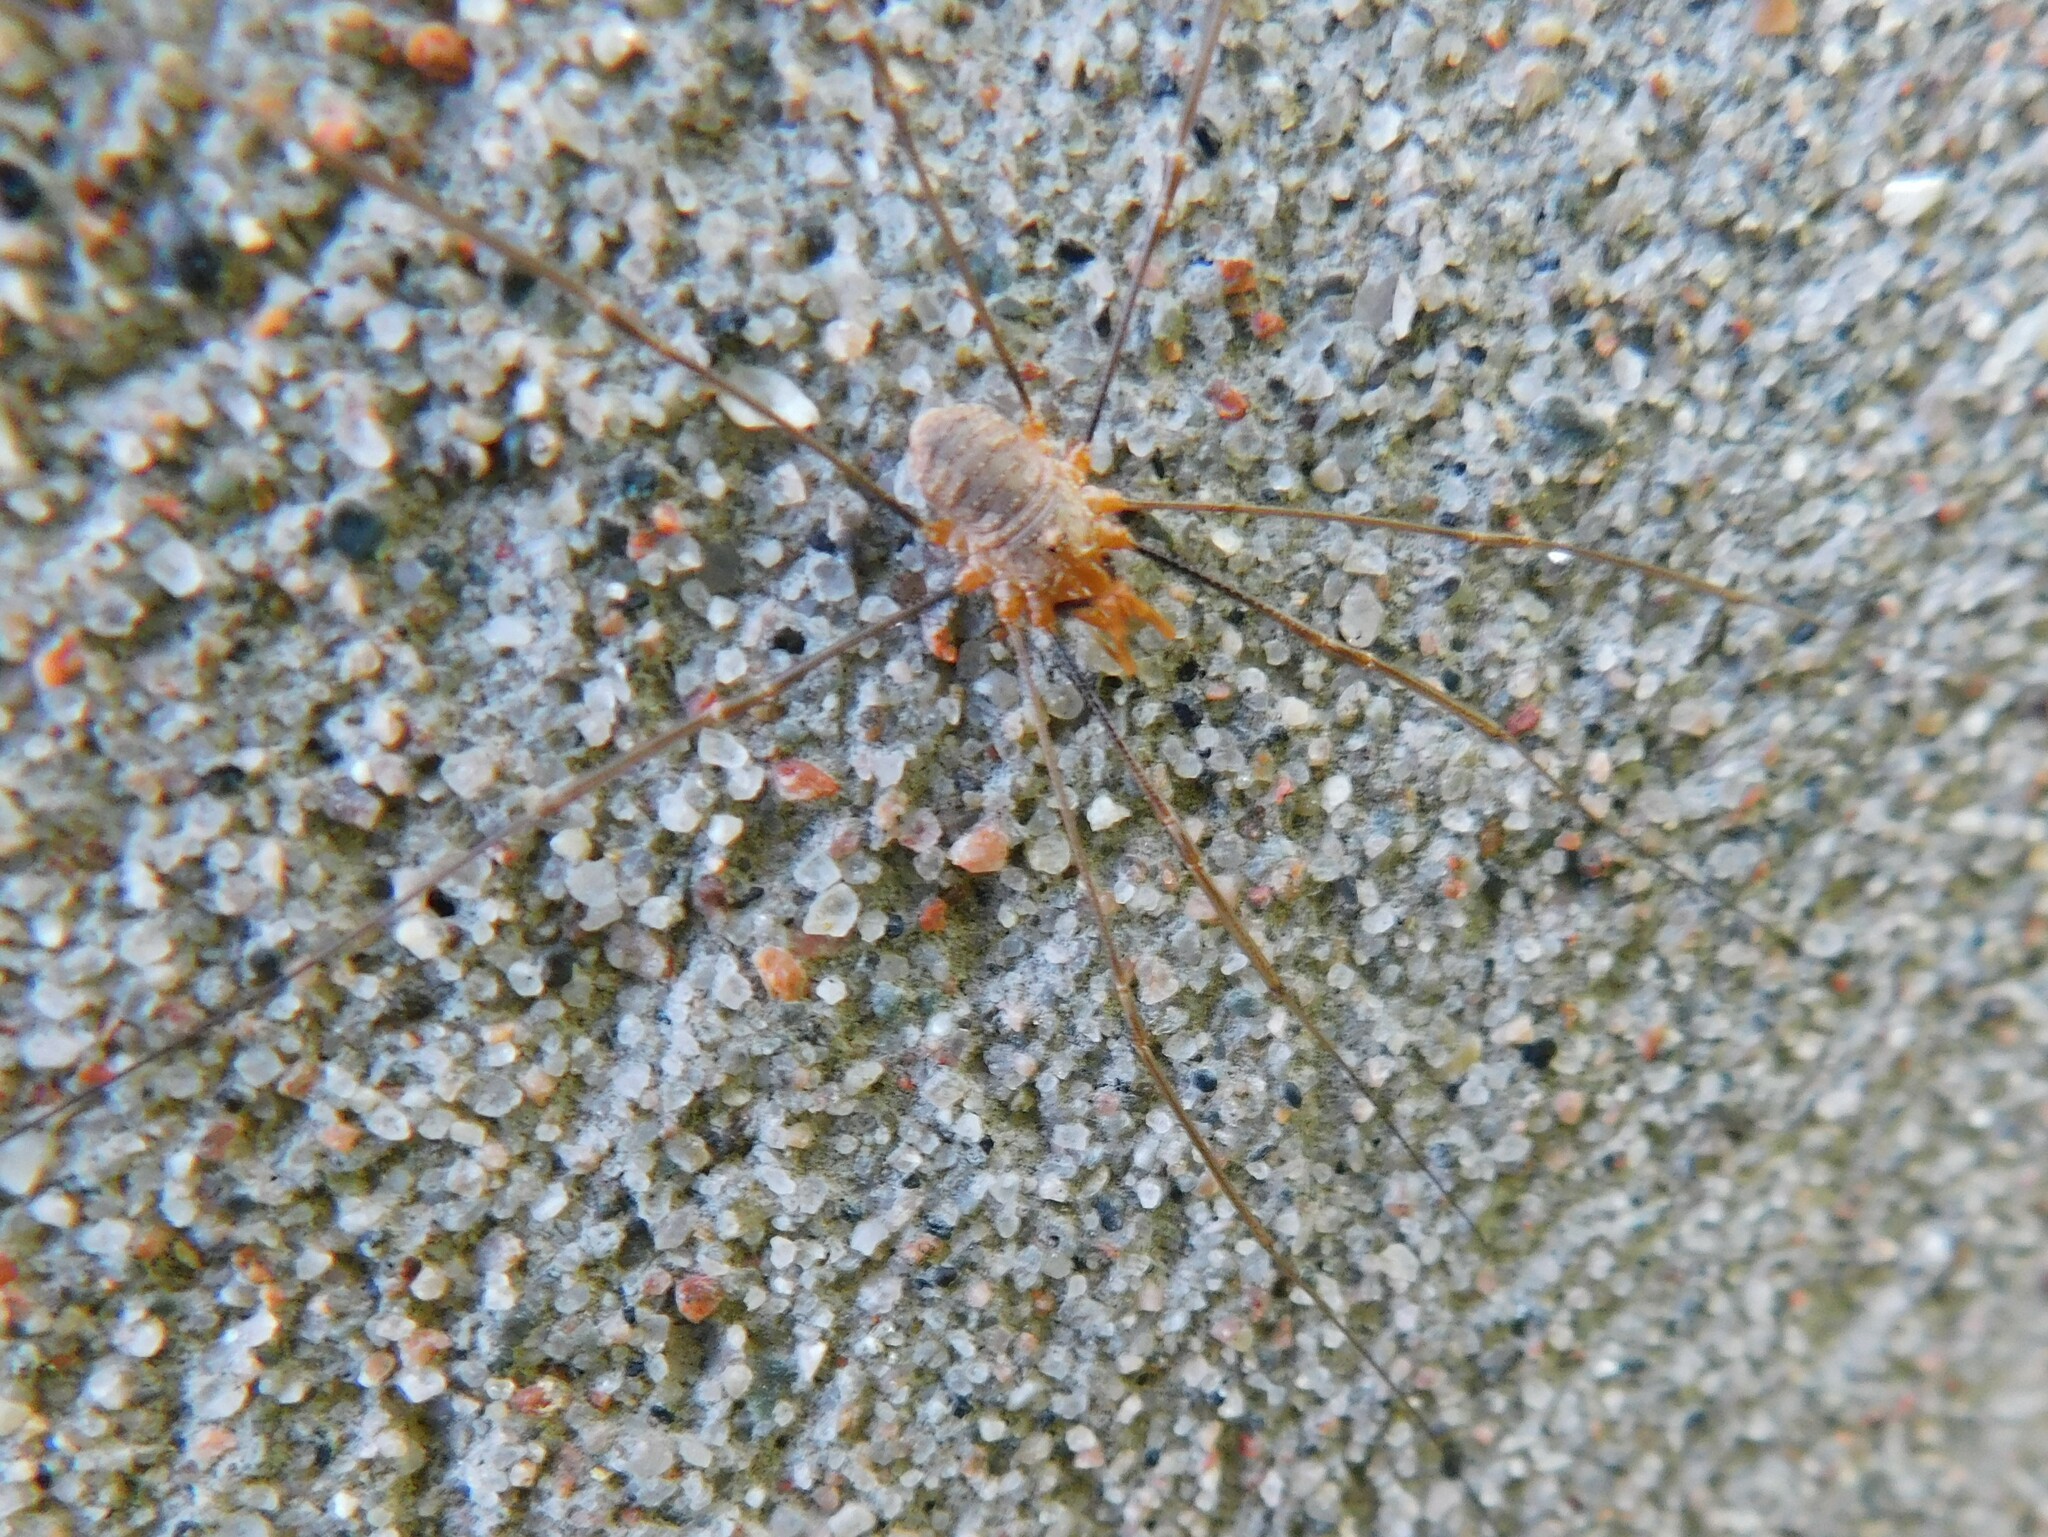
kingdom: Animalia
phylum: Arthropoda
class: Arachnida
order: Opiliones
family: Phalangiidae
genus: Phalangium
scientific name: Phalangium opilio
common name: Daddy longleg
